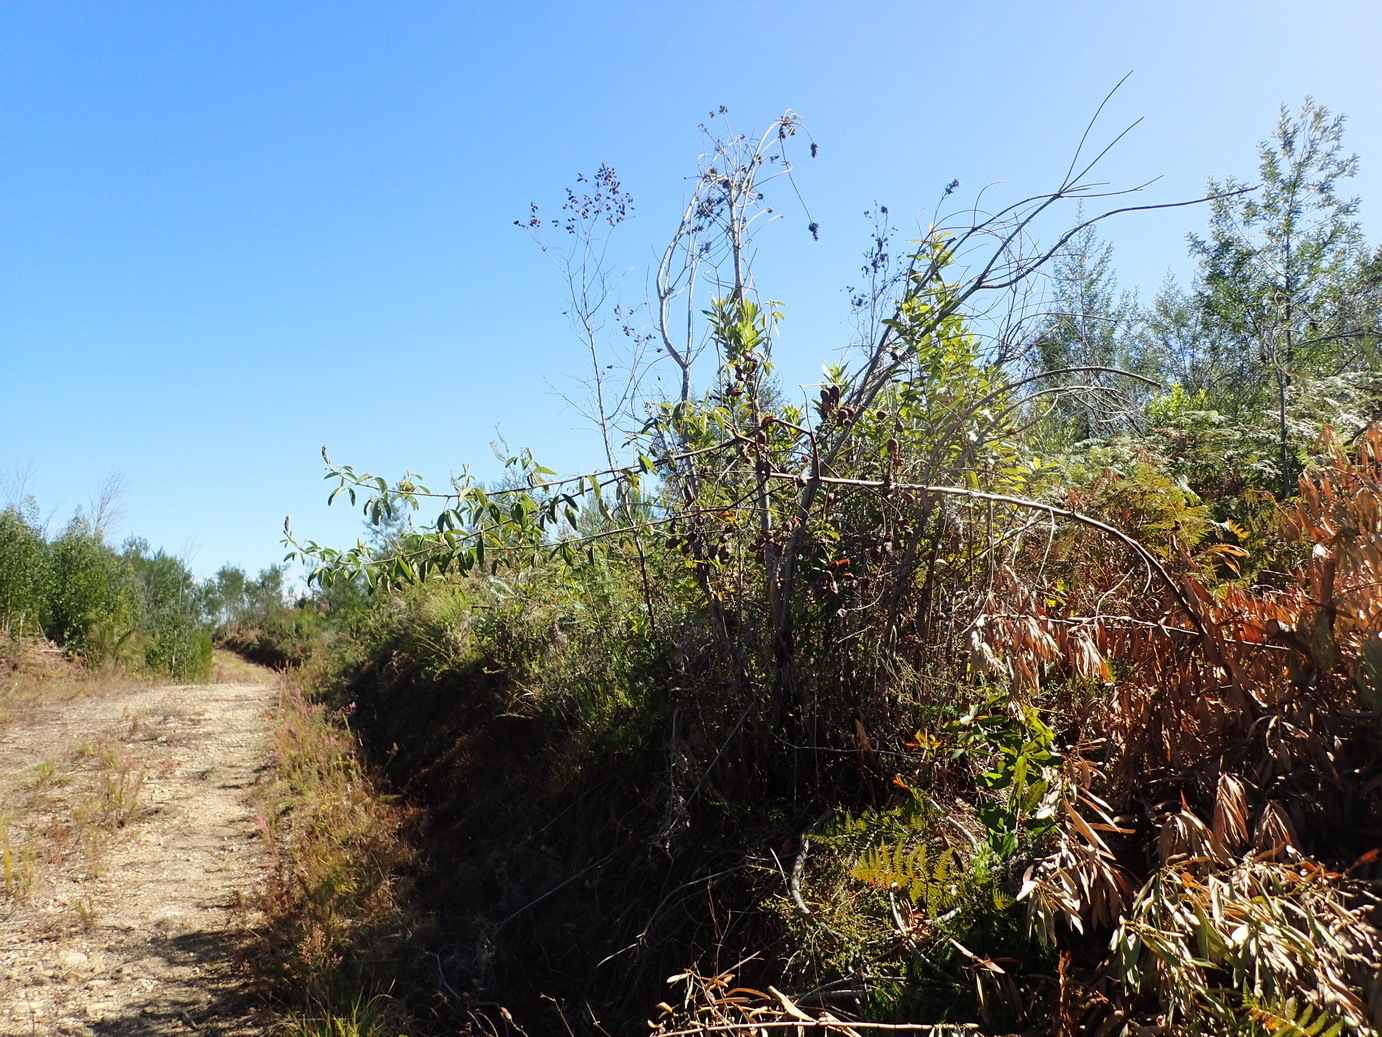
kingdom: Plantae
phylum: Tracheophyta
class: Magnoliopsida
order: Fabales
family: Fabaceae
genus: Hypocalyptus
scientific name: Hypocalyptus coluteoides
